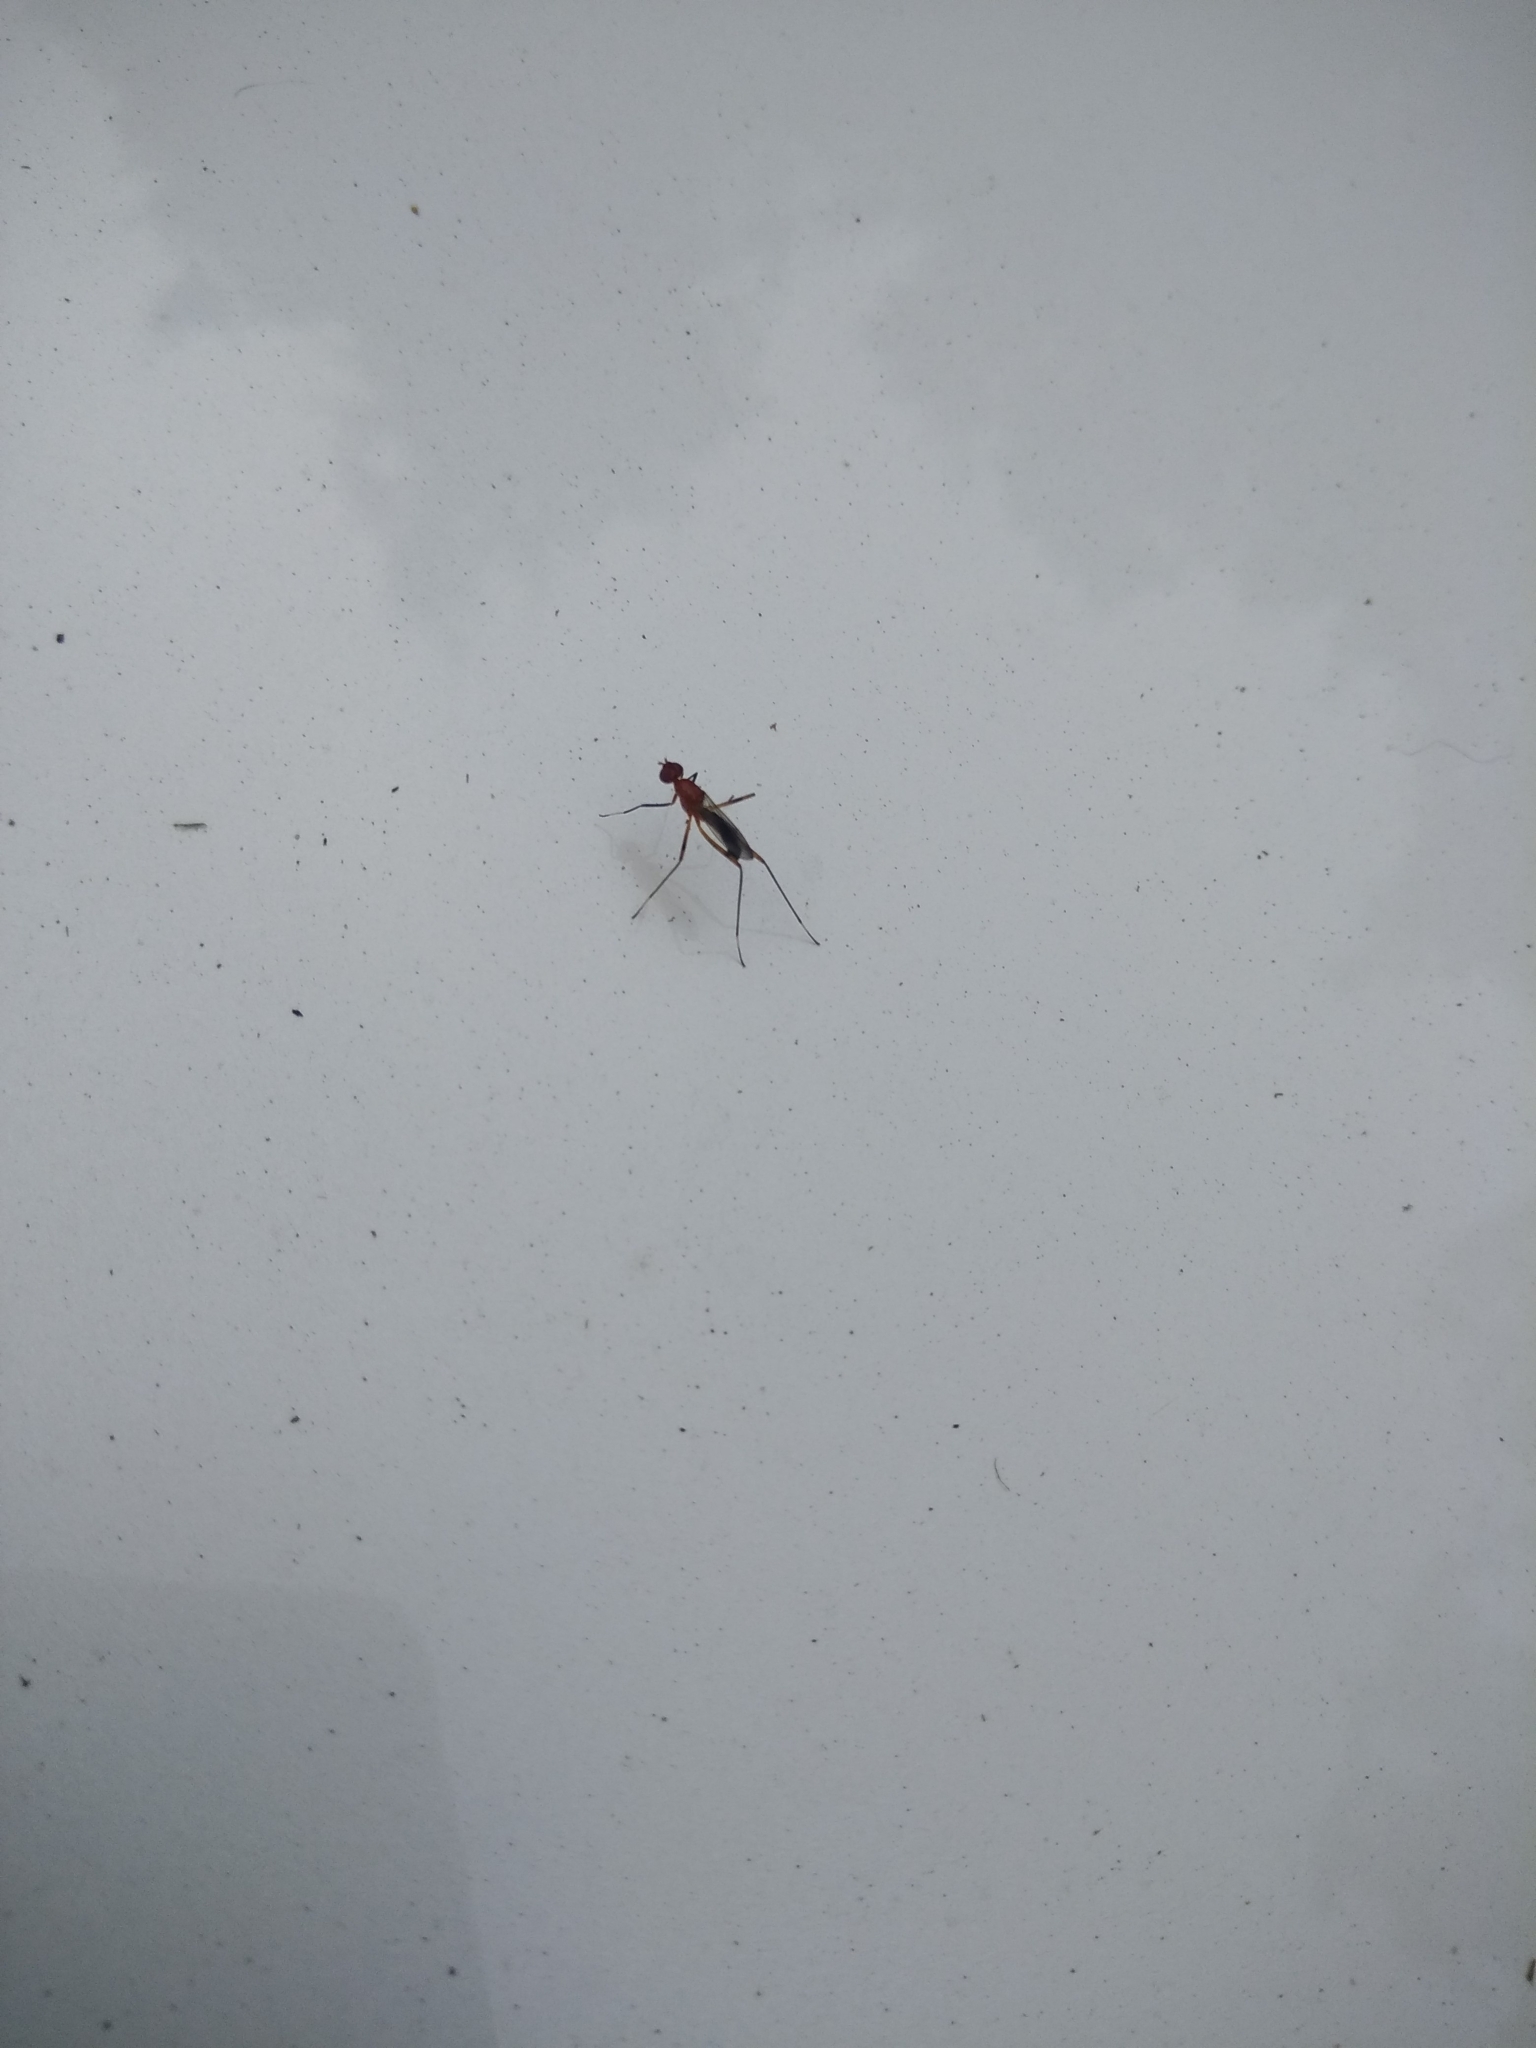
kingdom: Animalia
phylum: Arthropoda
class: Insecta
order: Diptera
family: Micropezidae
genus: Grallipeza
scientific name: Grallipeza nebulosa
